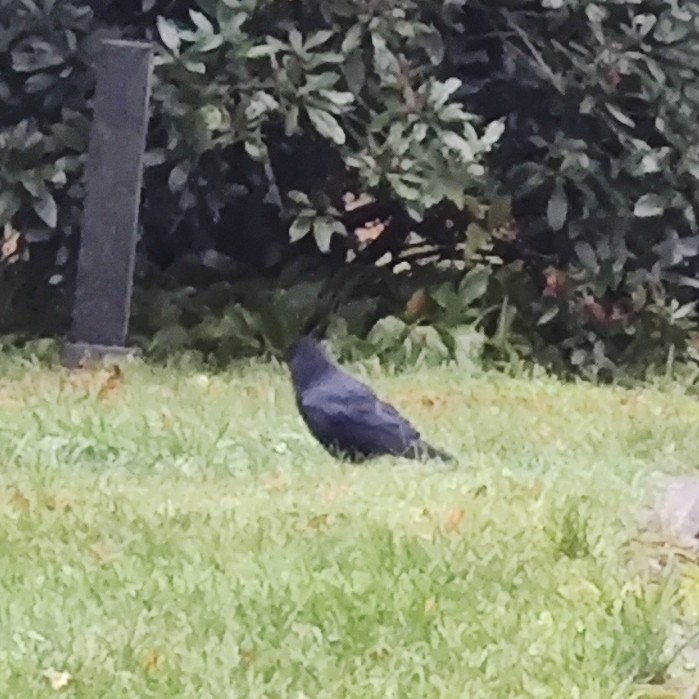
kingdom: Animalia
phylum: Chordata
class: Aves
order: Passeriformes
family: Corvidae
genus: Corvus
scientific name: Corvus corone
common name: Carrion crow
